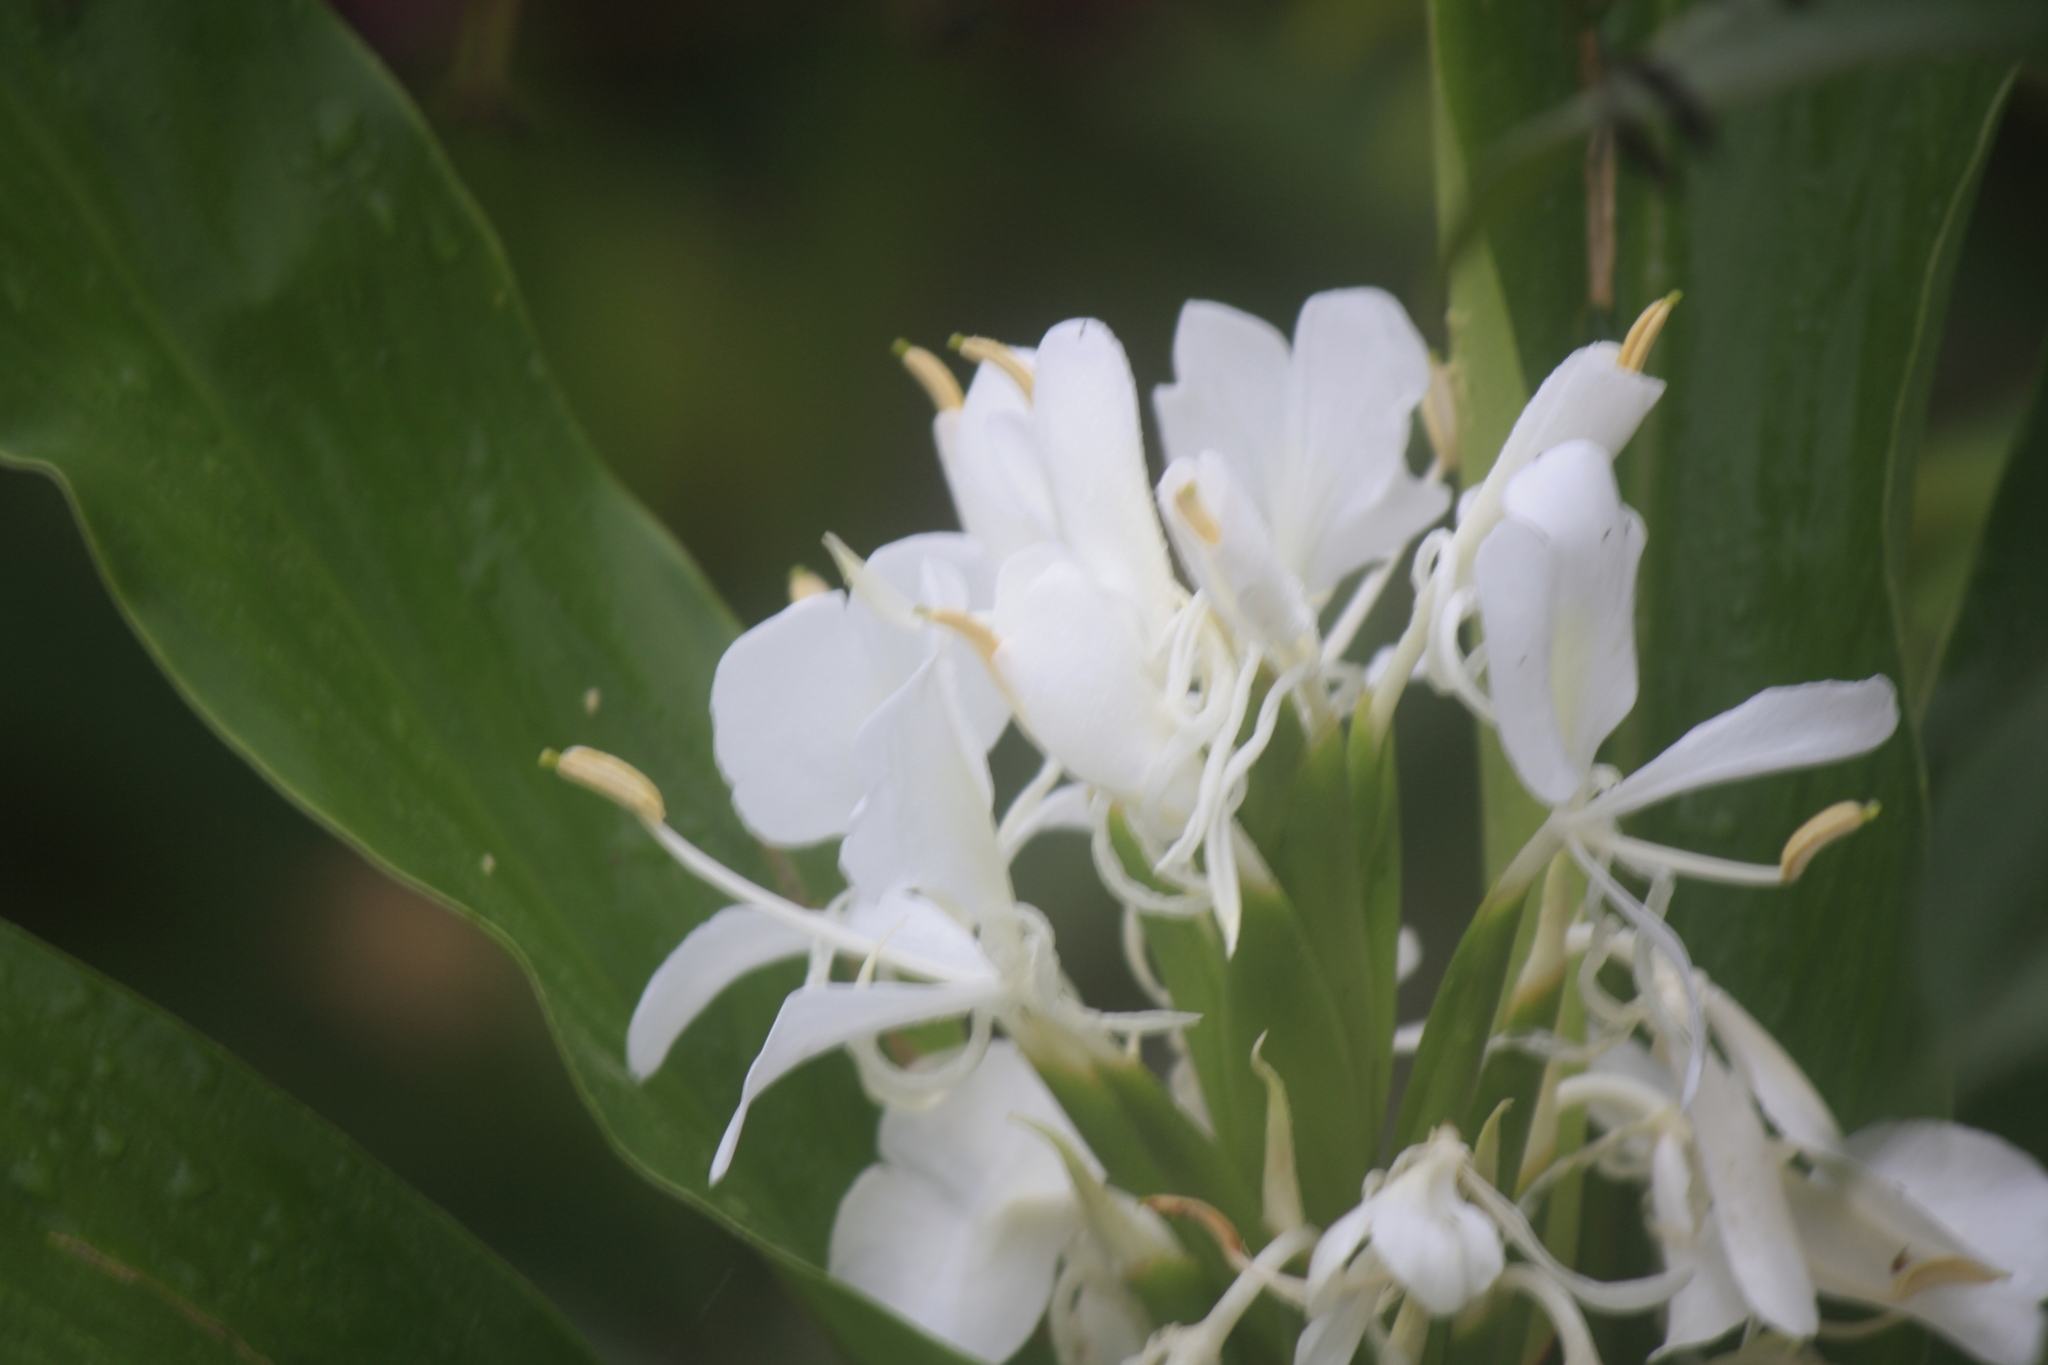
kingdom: Plantae
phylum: Tracheophyta
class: Liliopsida
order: Zingiberales
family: Zingiberaceae
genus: Hedychium
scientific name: Hedychium coronarium
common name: White garland-lily
